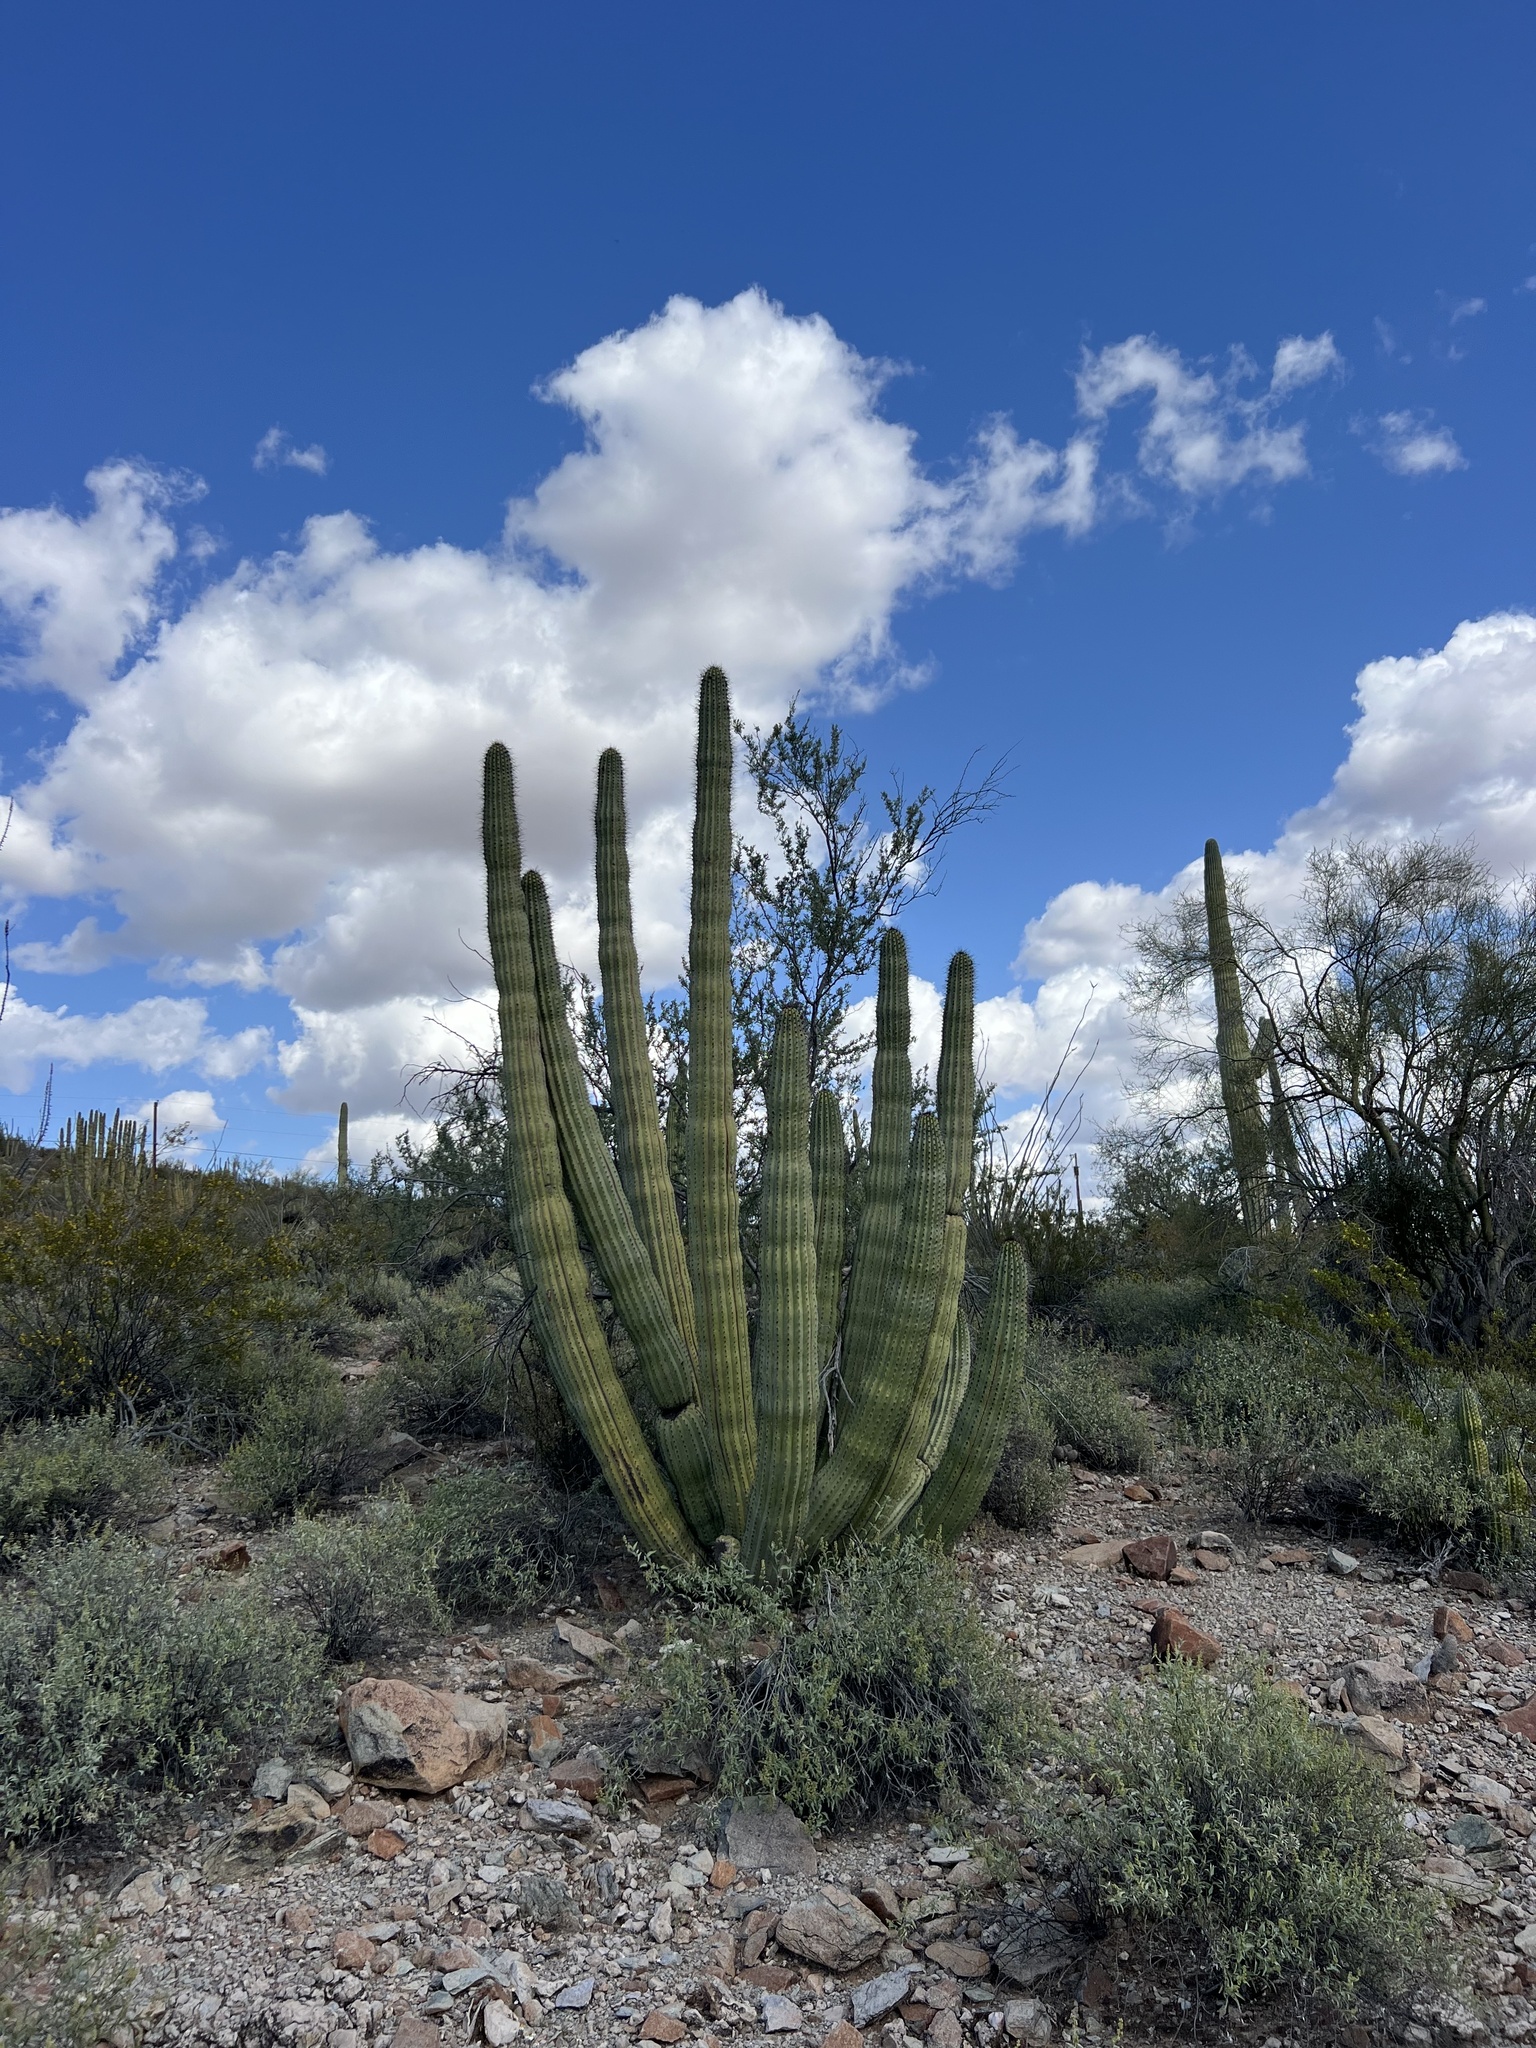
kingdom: Plantae
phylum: Tracheophyta
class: Magnoliopsida
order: Caryophyllales
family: Cactaceae
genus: Stenocereus
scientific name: Stenocereus thurberi
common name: Organ pipe cactus
